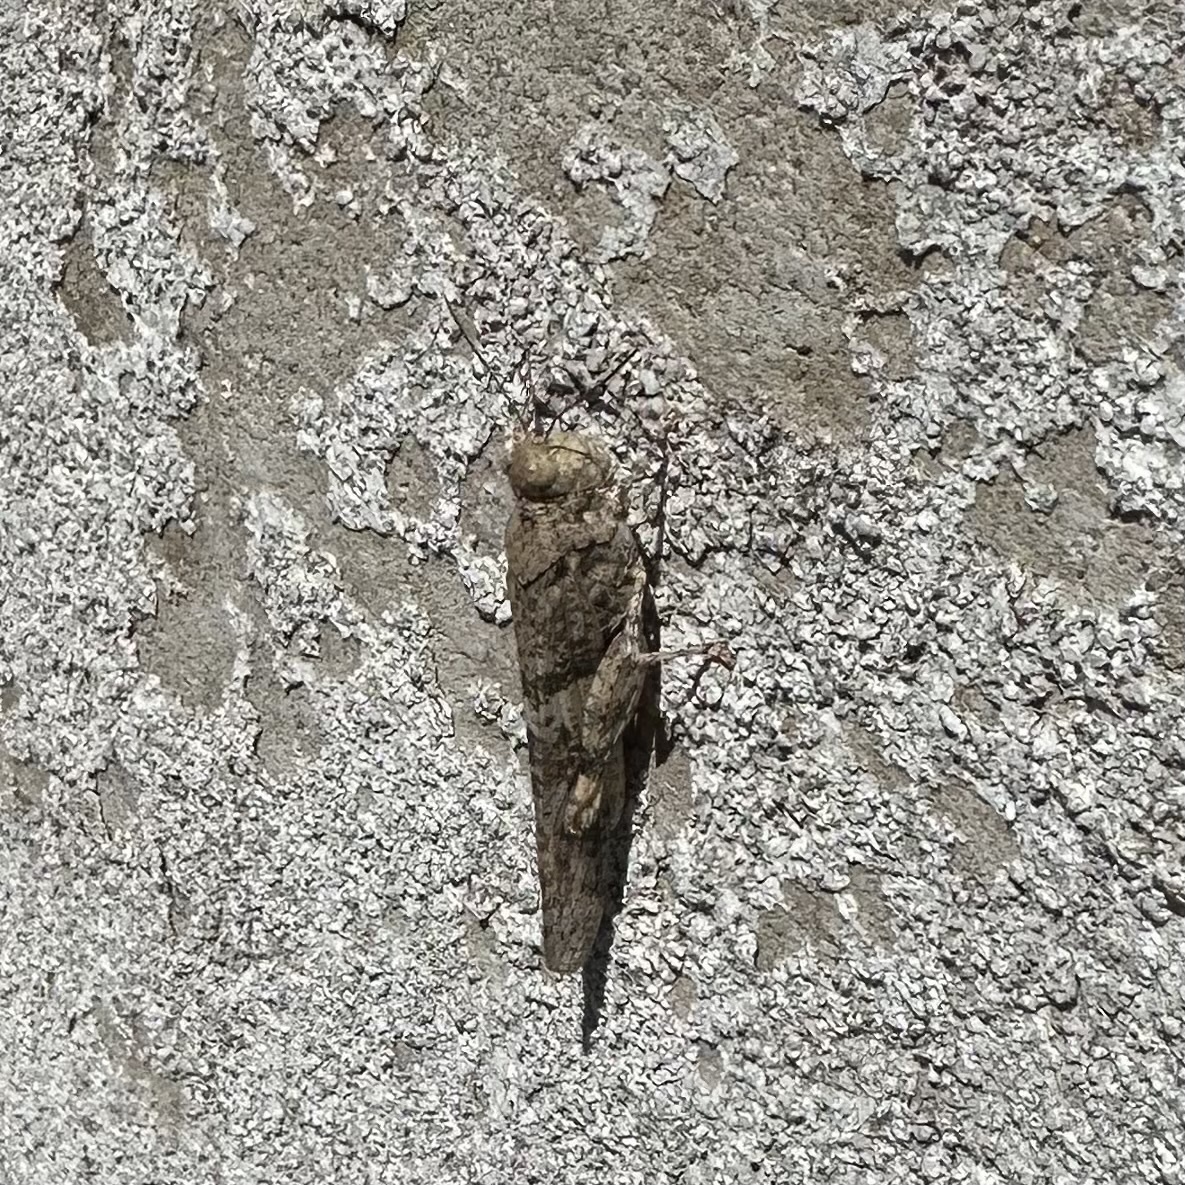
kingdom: Animalia
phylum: Arthropoda
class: Insecta
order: Orthoptera
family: Acrididae
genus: Trimerotropis
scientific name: Trimerotropis pallidipennis
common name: Pallid-winged grasshopper
